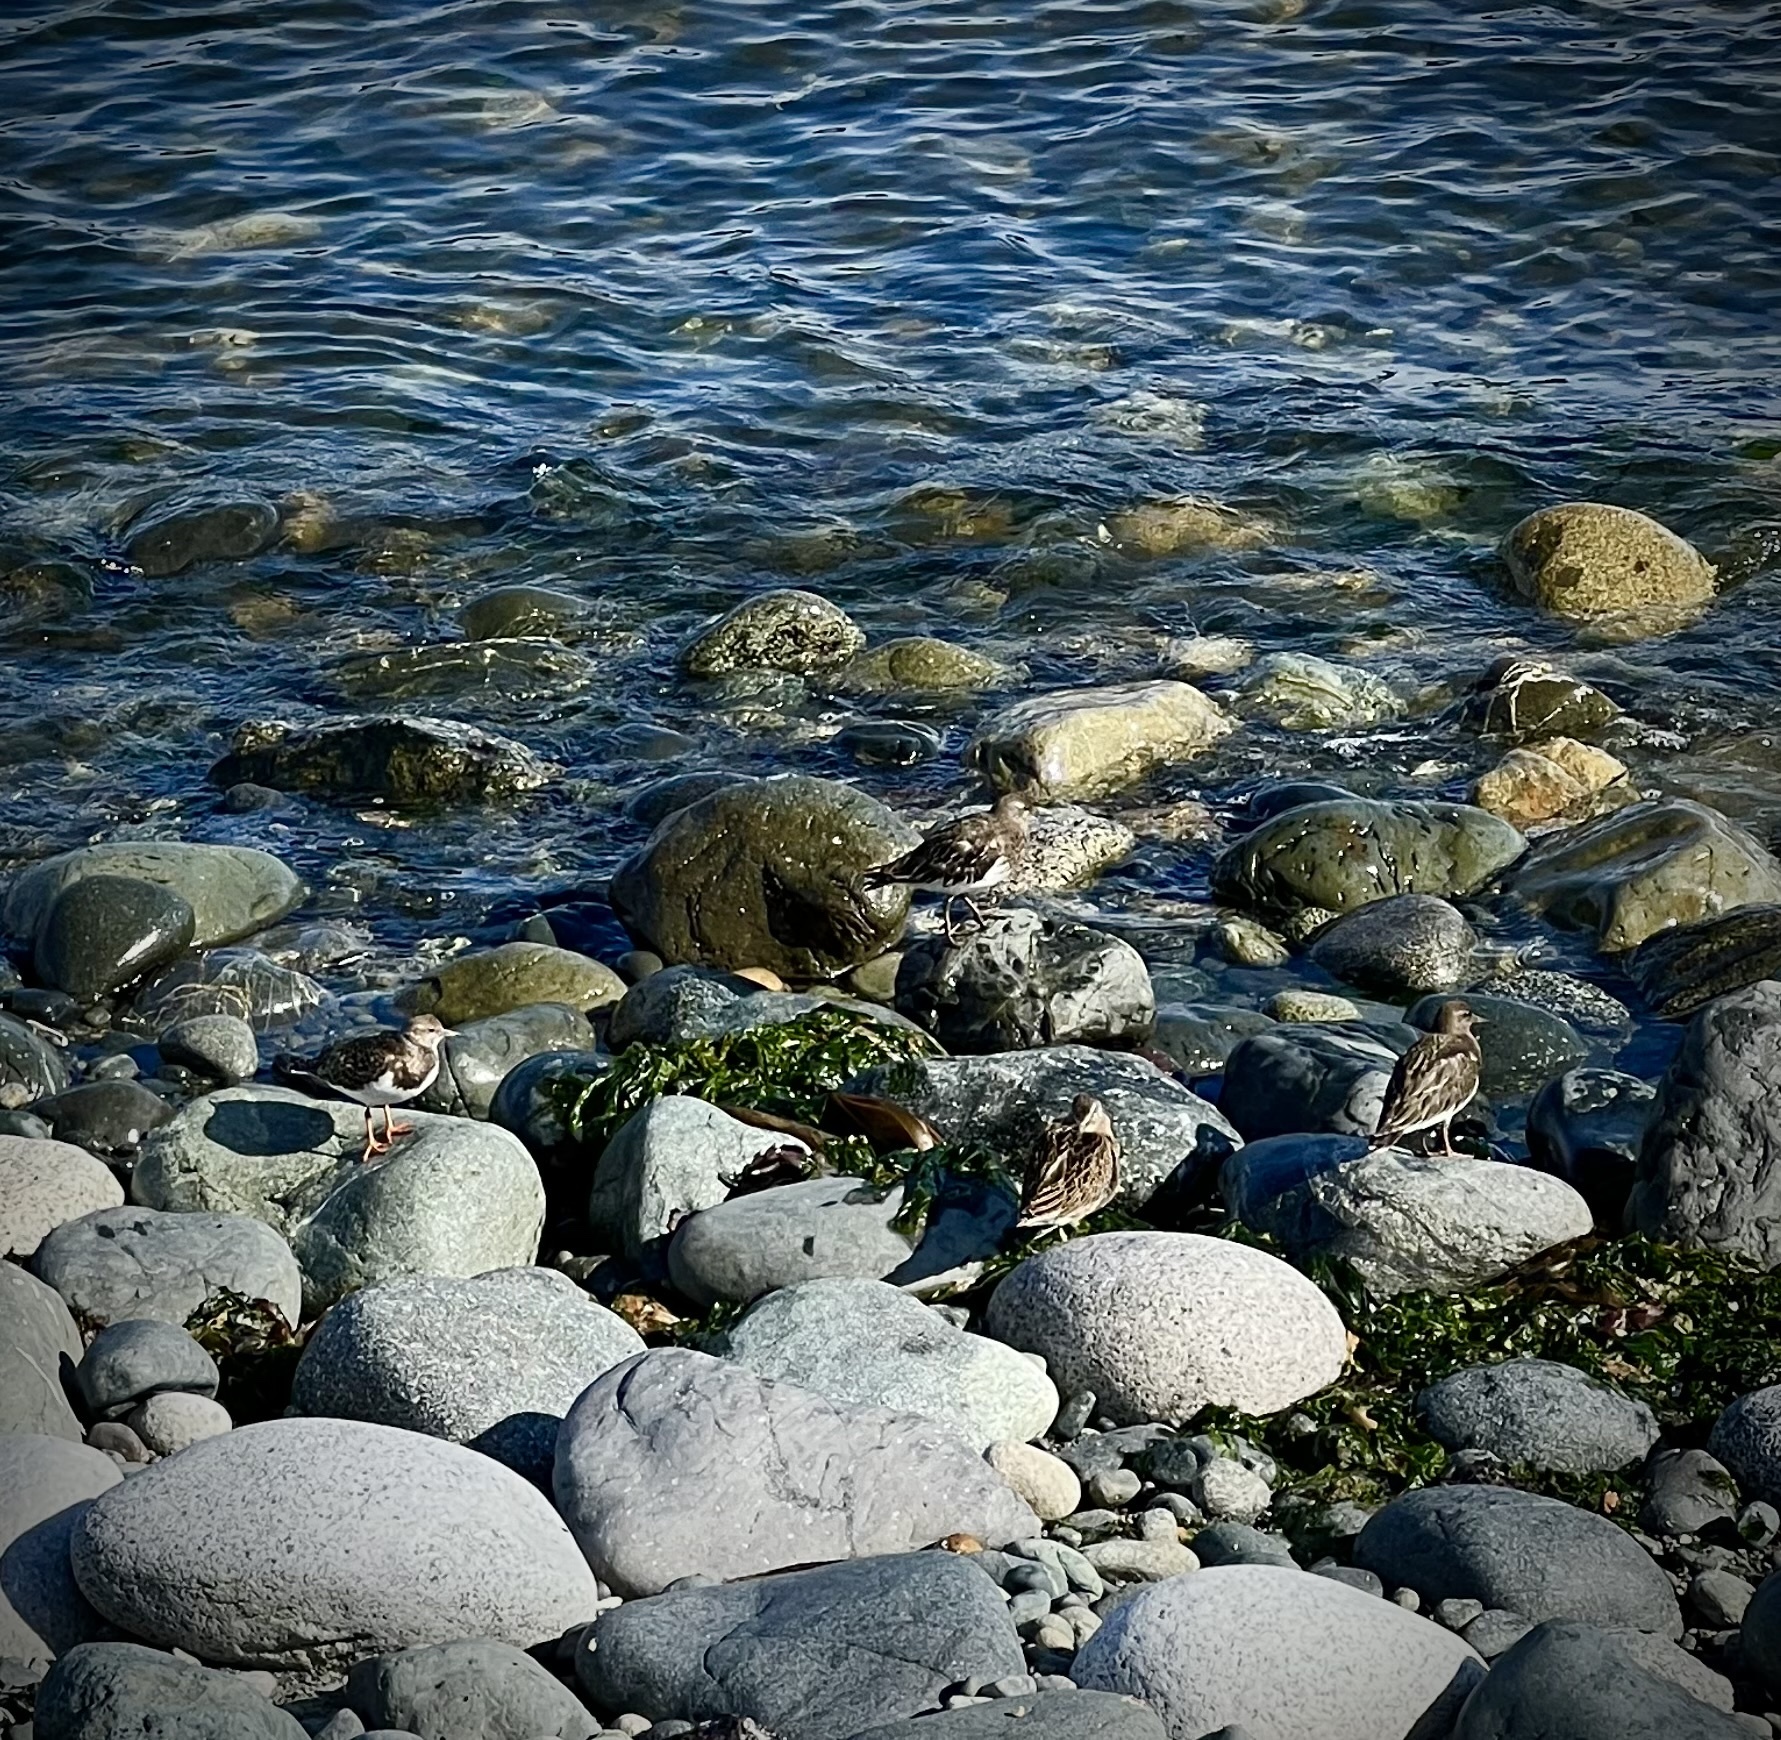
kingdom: Animalia
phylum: Chordata
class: Aves
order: Charadriiformes
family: Scolopacidae
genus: Arenaria
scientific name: Arenaria interpres
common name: Ruddy turnstone
